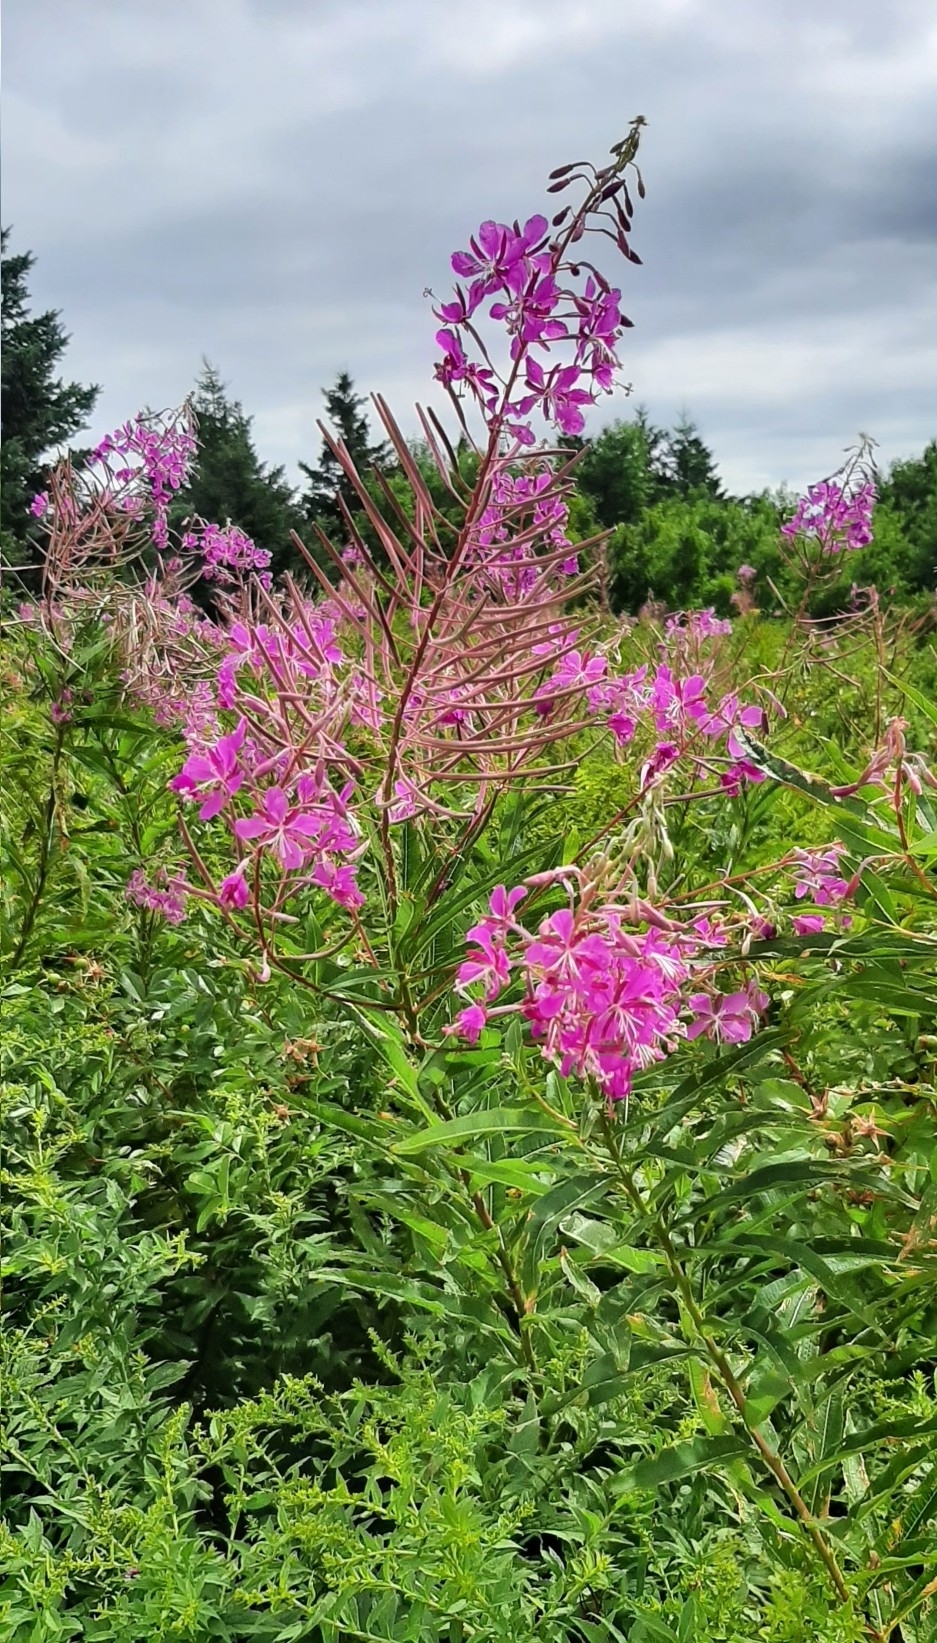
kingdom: Plantae
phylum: Tracheophyta
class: Magnoliopsida
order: Myrtales
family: Onagraceae
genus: Chamaenerion
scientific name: Chamaenerion angustifolium
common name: Fireweed
